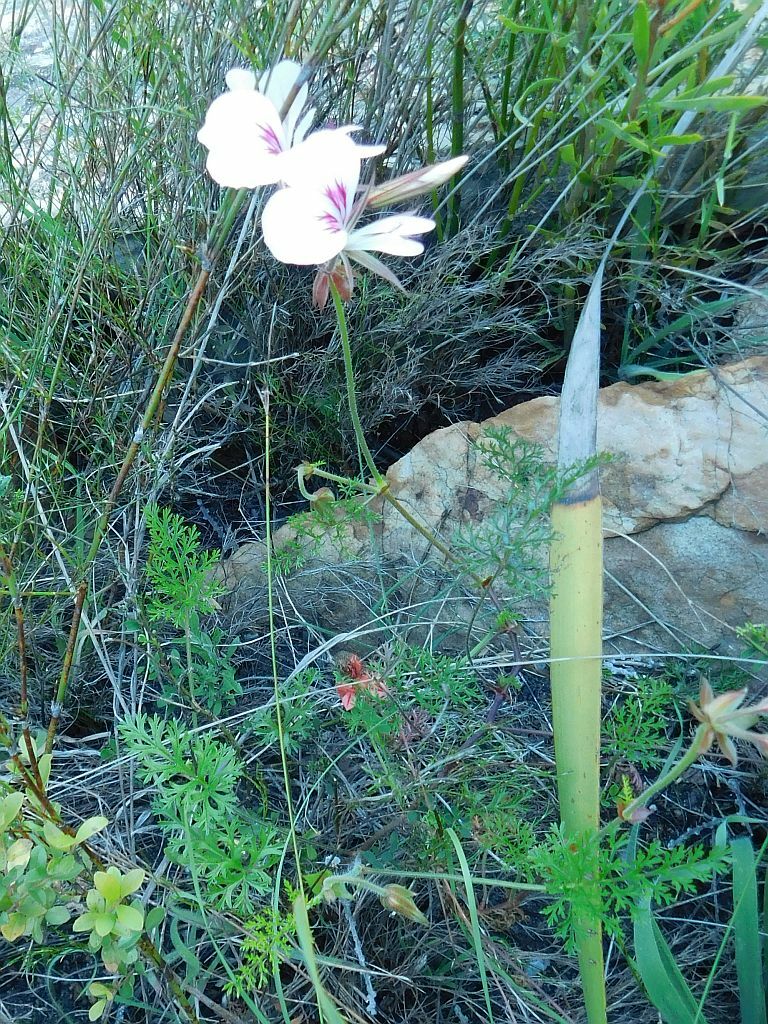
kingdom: Plantae
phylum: Tracheophyta
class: Magnoliopsida
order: Geraniales
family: Geraniaceae
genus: Pelargonium
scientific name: Pelargonium longicaule
